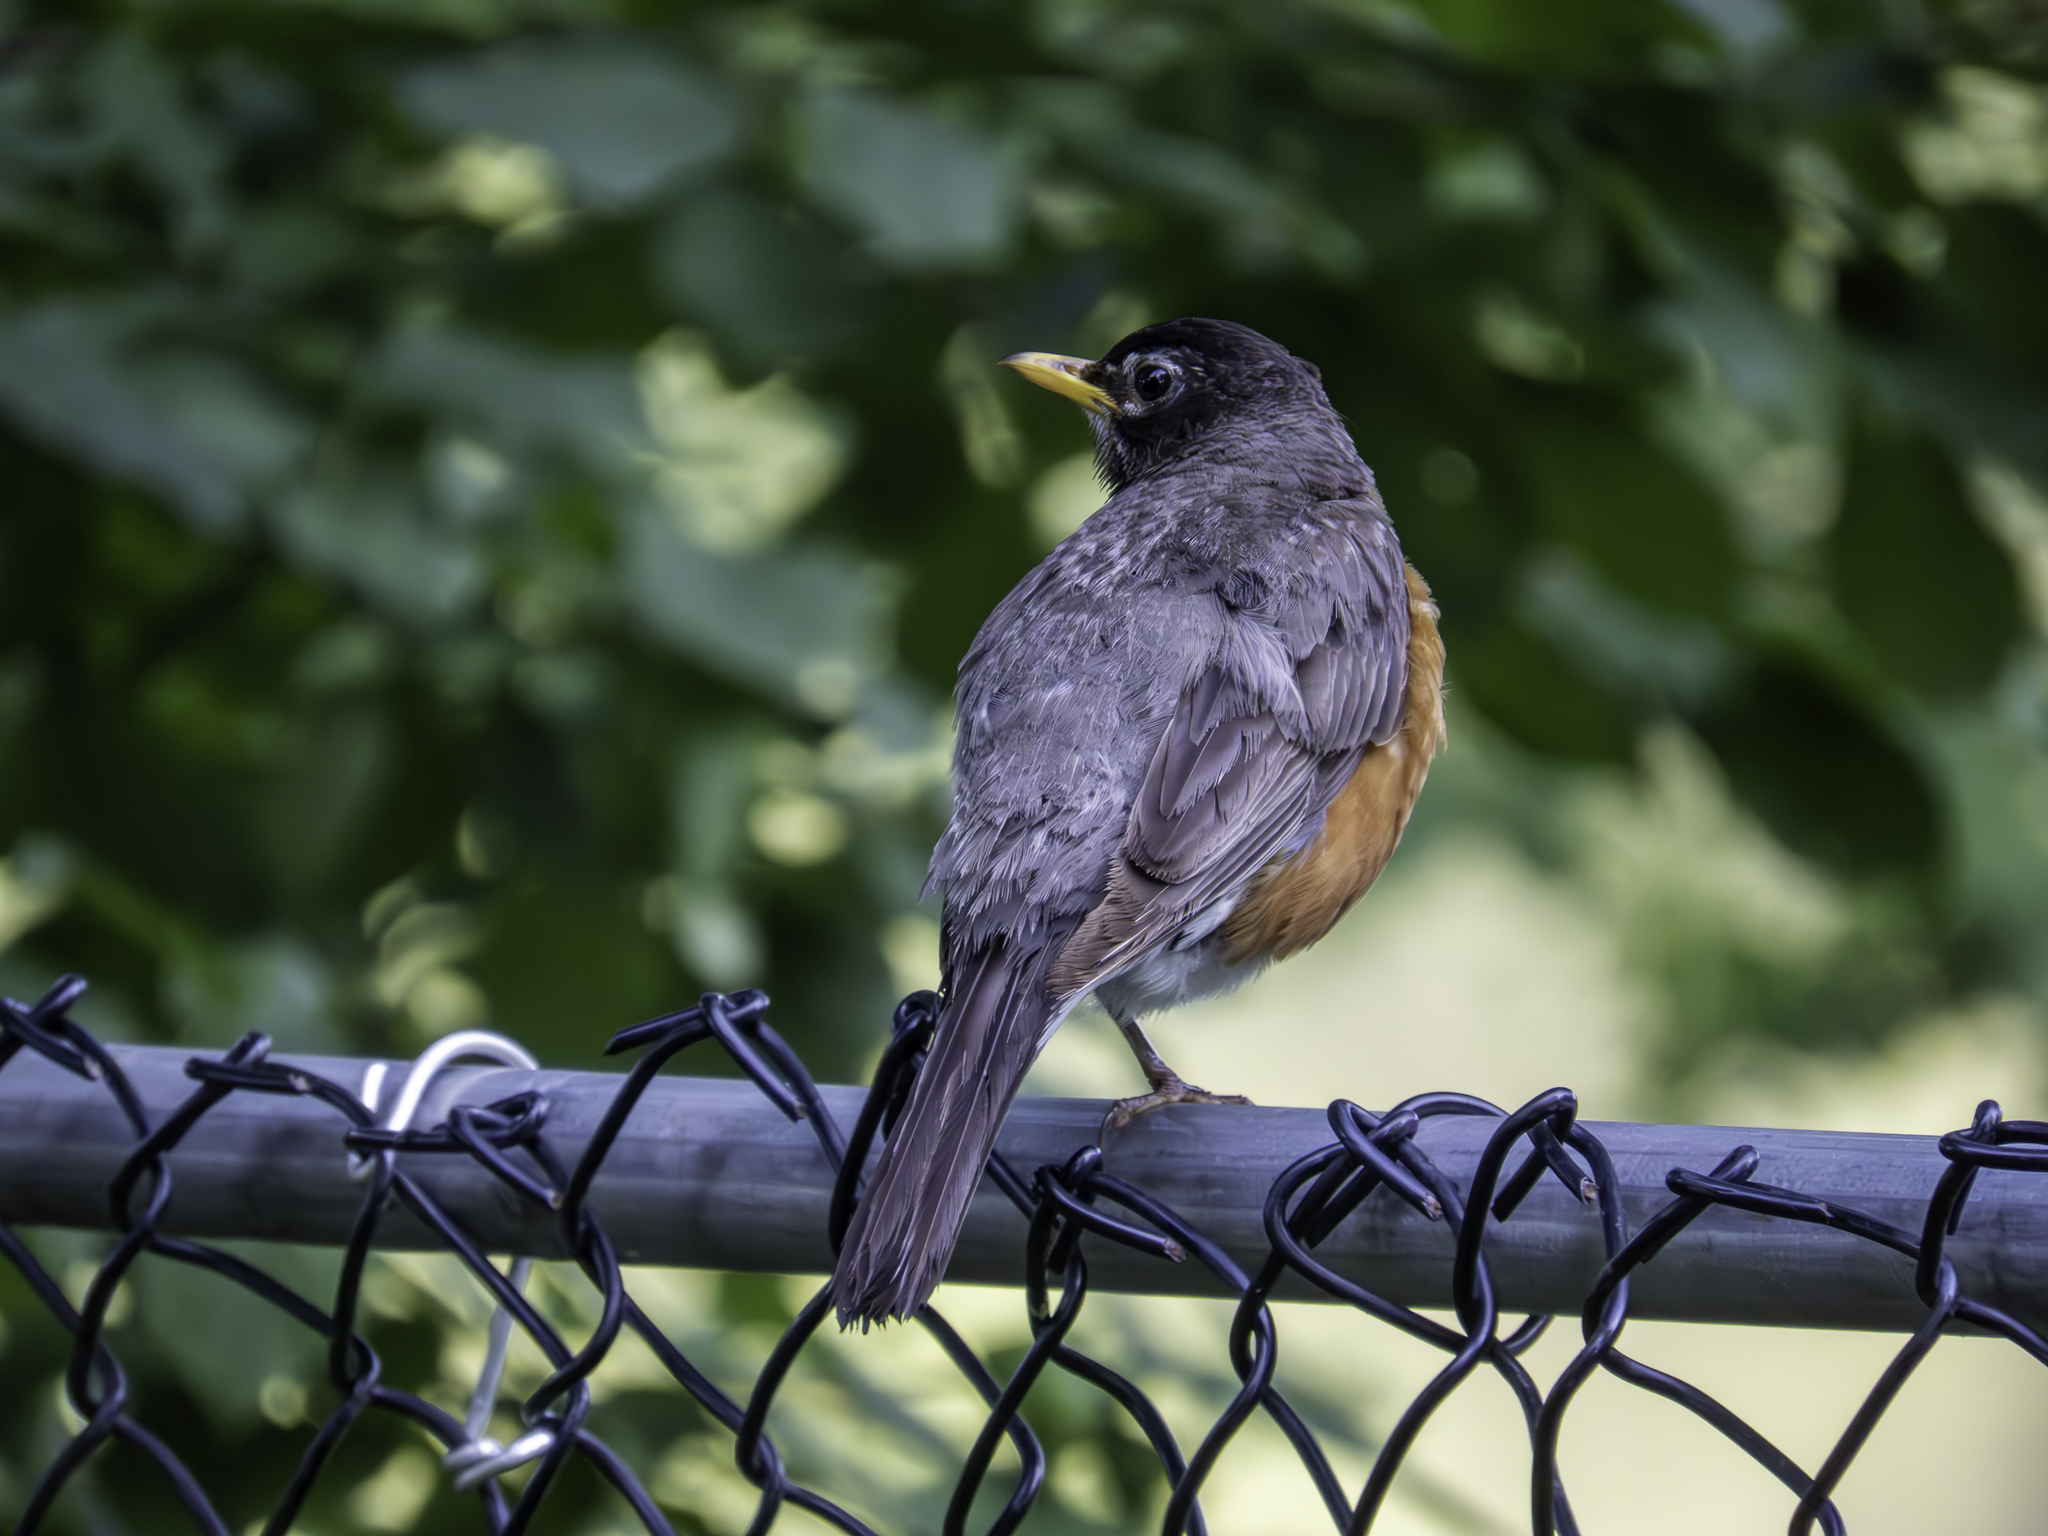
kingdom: Animalia
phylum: Chordata
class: Aves
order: Passeriformes
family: Turdidae
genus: Turdus
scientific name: Turdus migratorius
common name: American robin
